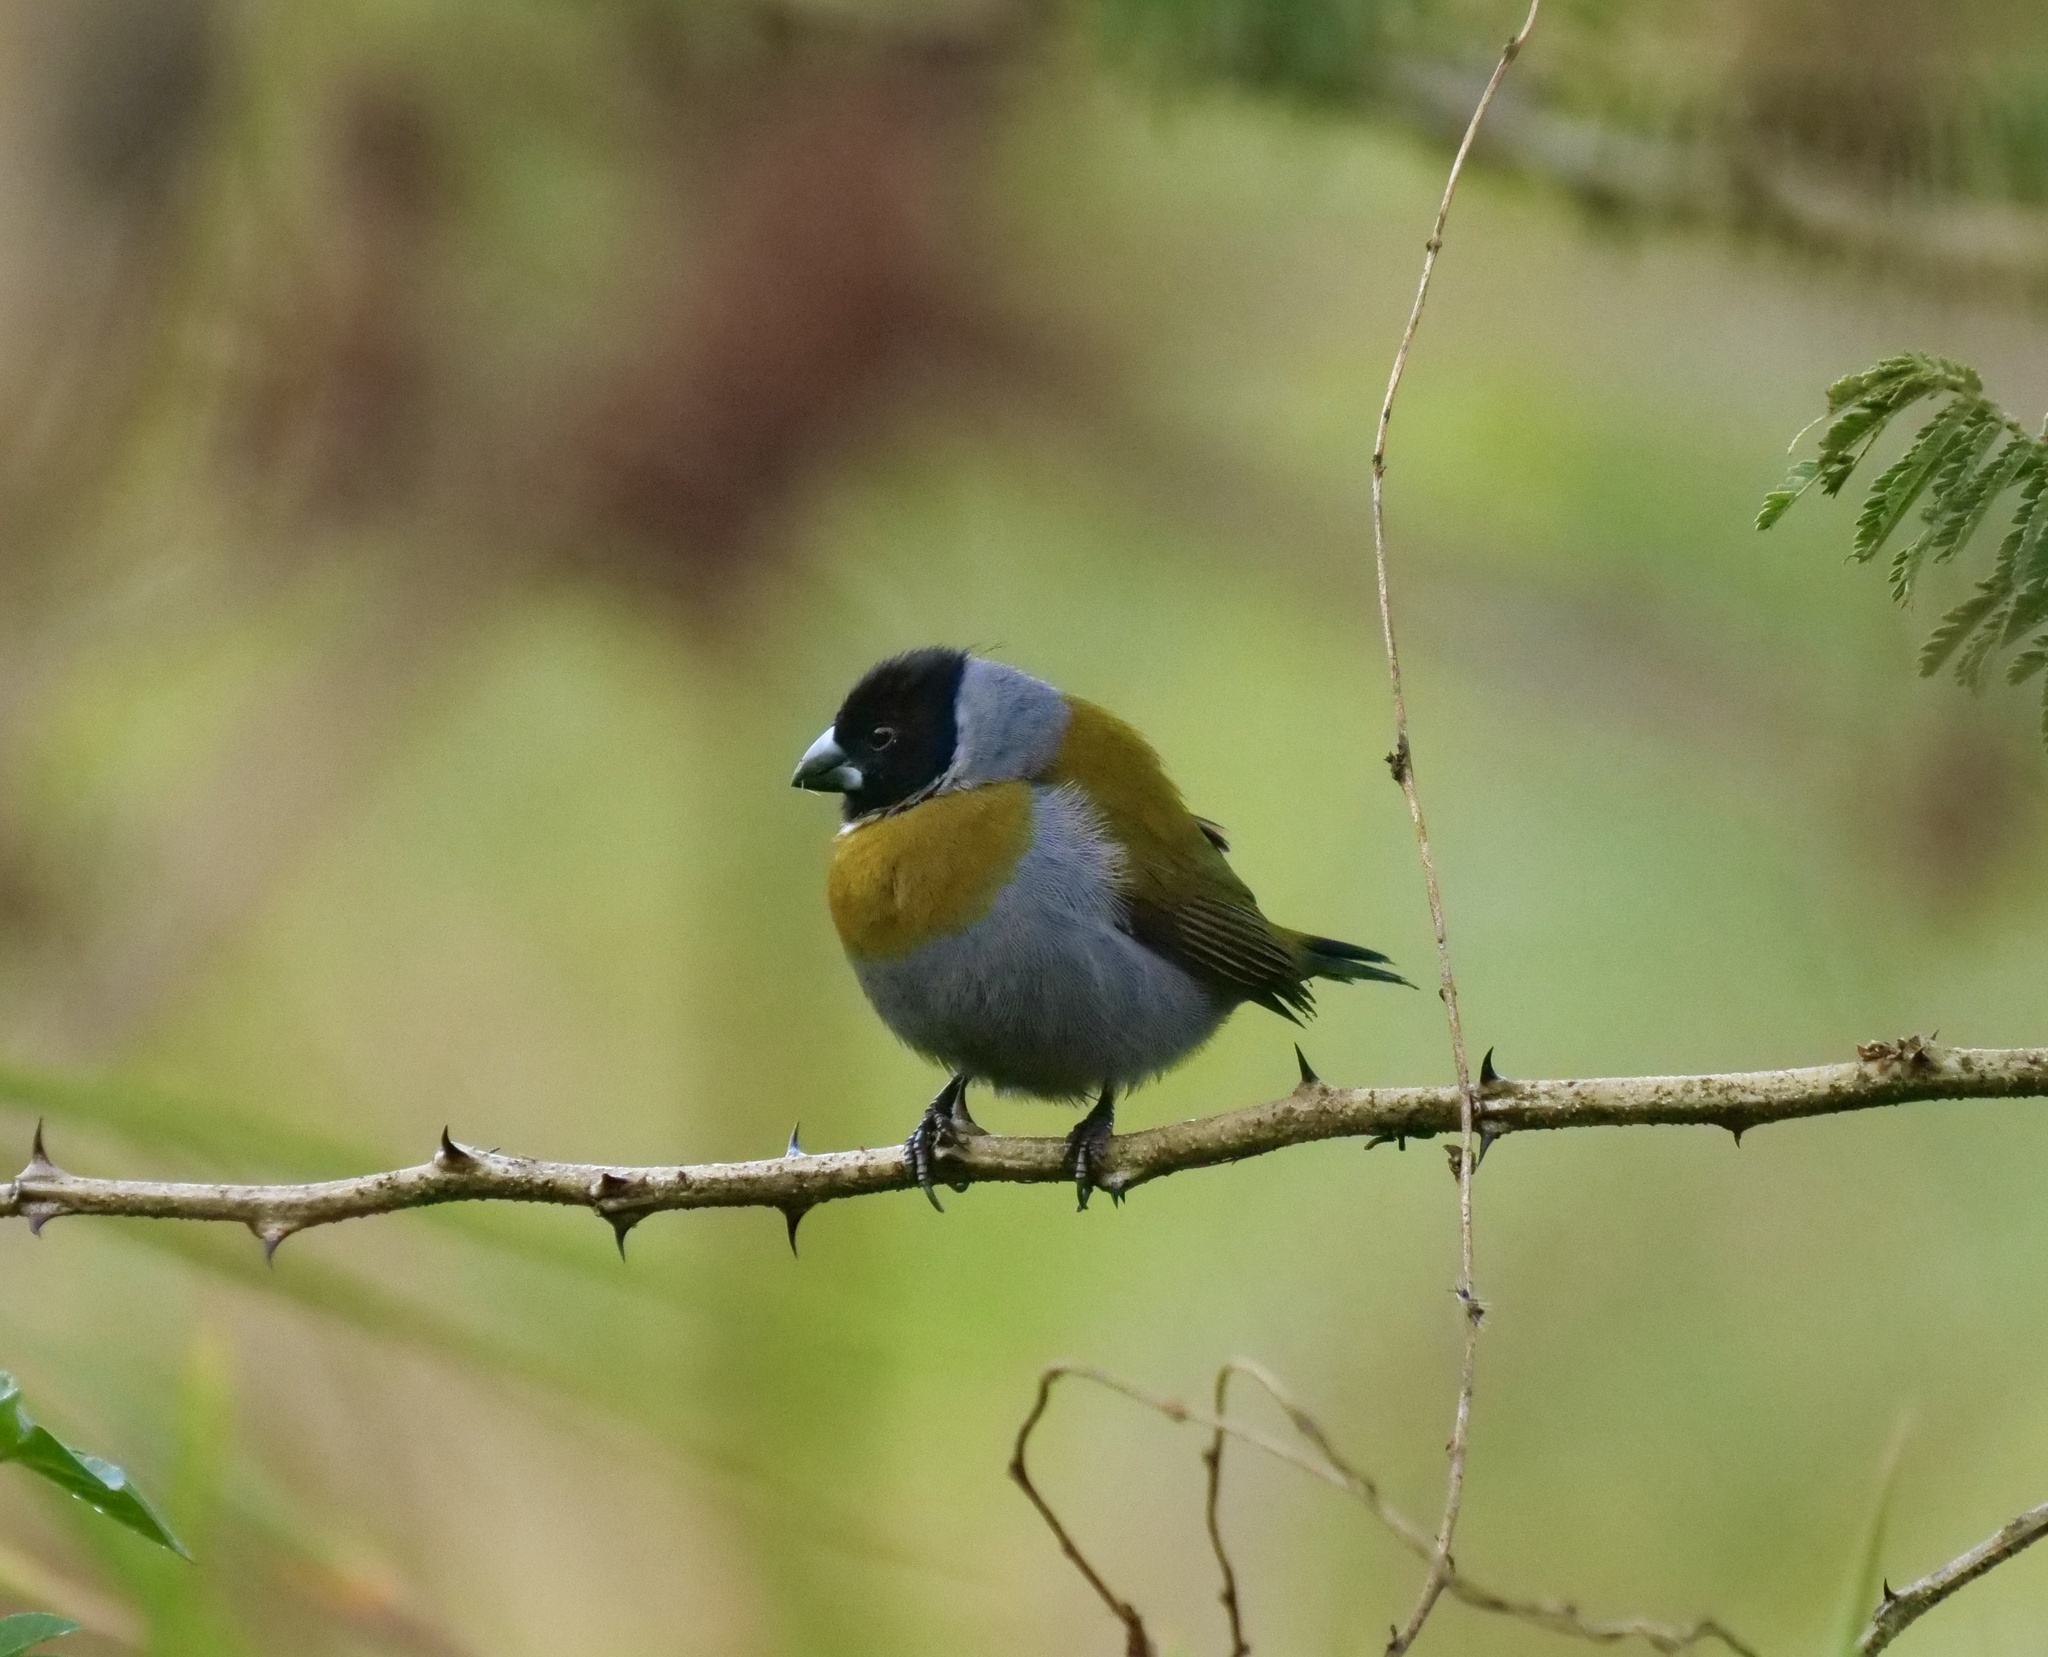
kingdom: Animalia
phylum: Chordata
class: Aves
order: Passeriformes
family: Estrildidae
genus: Nesocharis
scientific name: Nesocharis ansorgei
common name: White-collared oliveback
